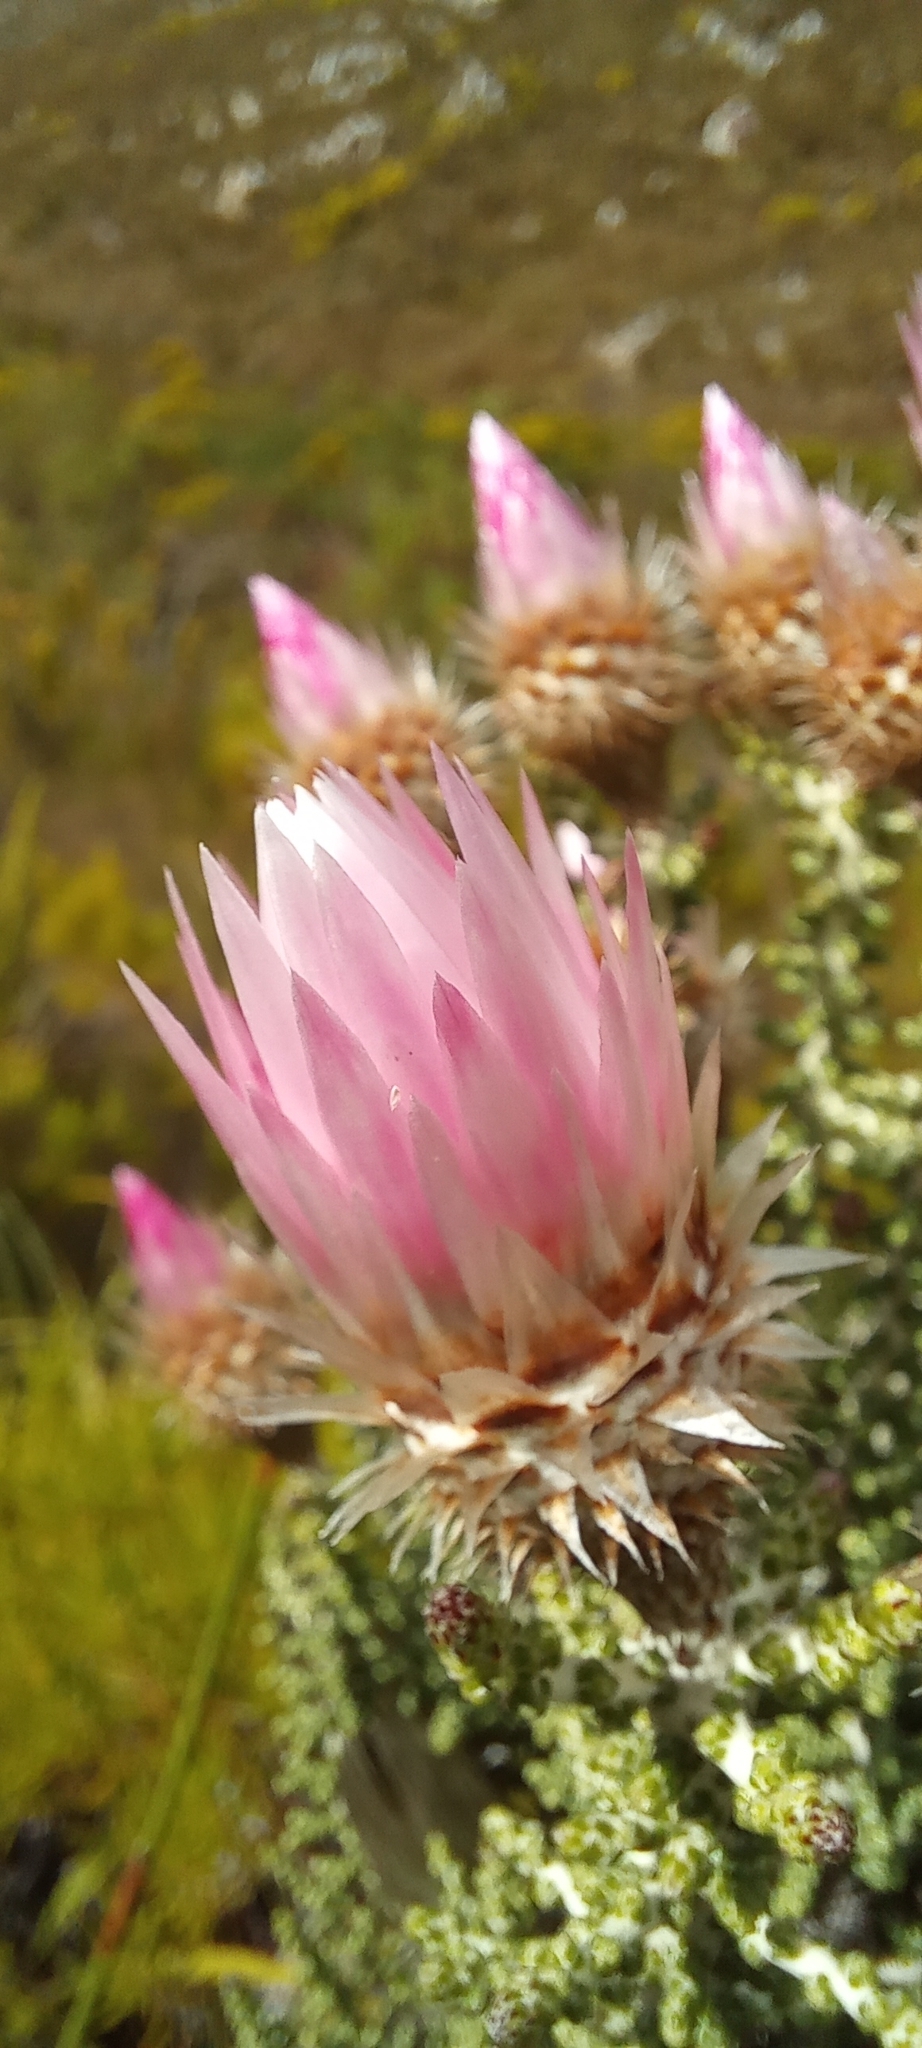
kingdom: Plantae
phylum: Tracheophyta
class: Magnoliopsida
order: Asterales
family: Asteraceae
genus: Phaenocoma
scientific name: Phaenocoma prolifera
